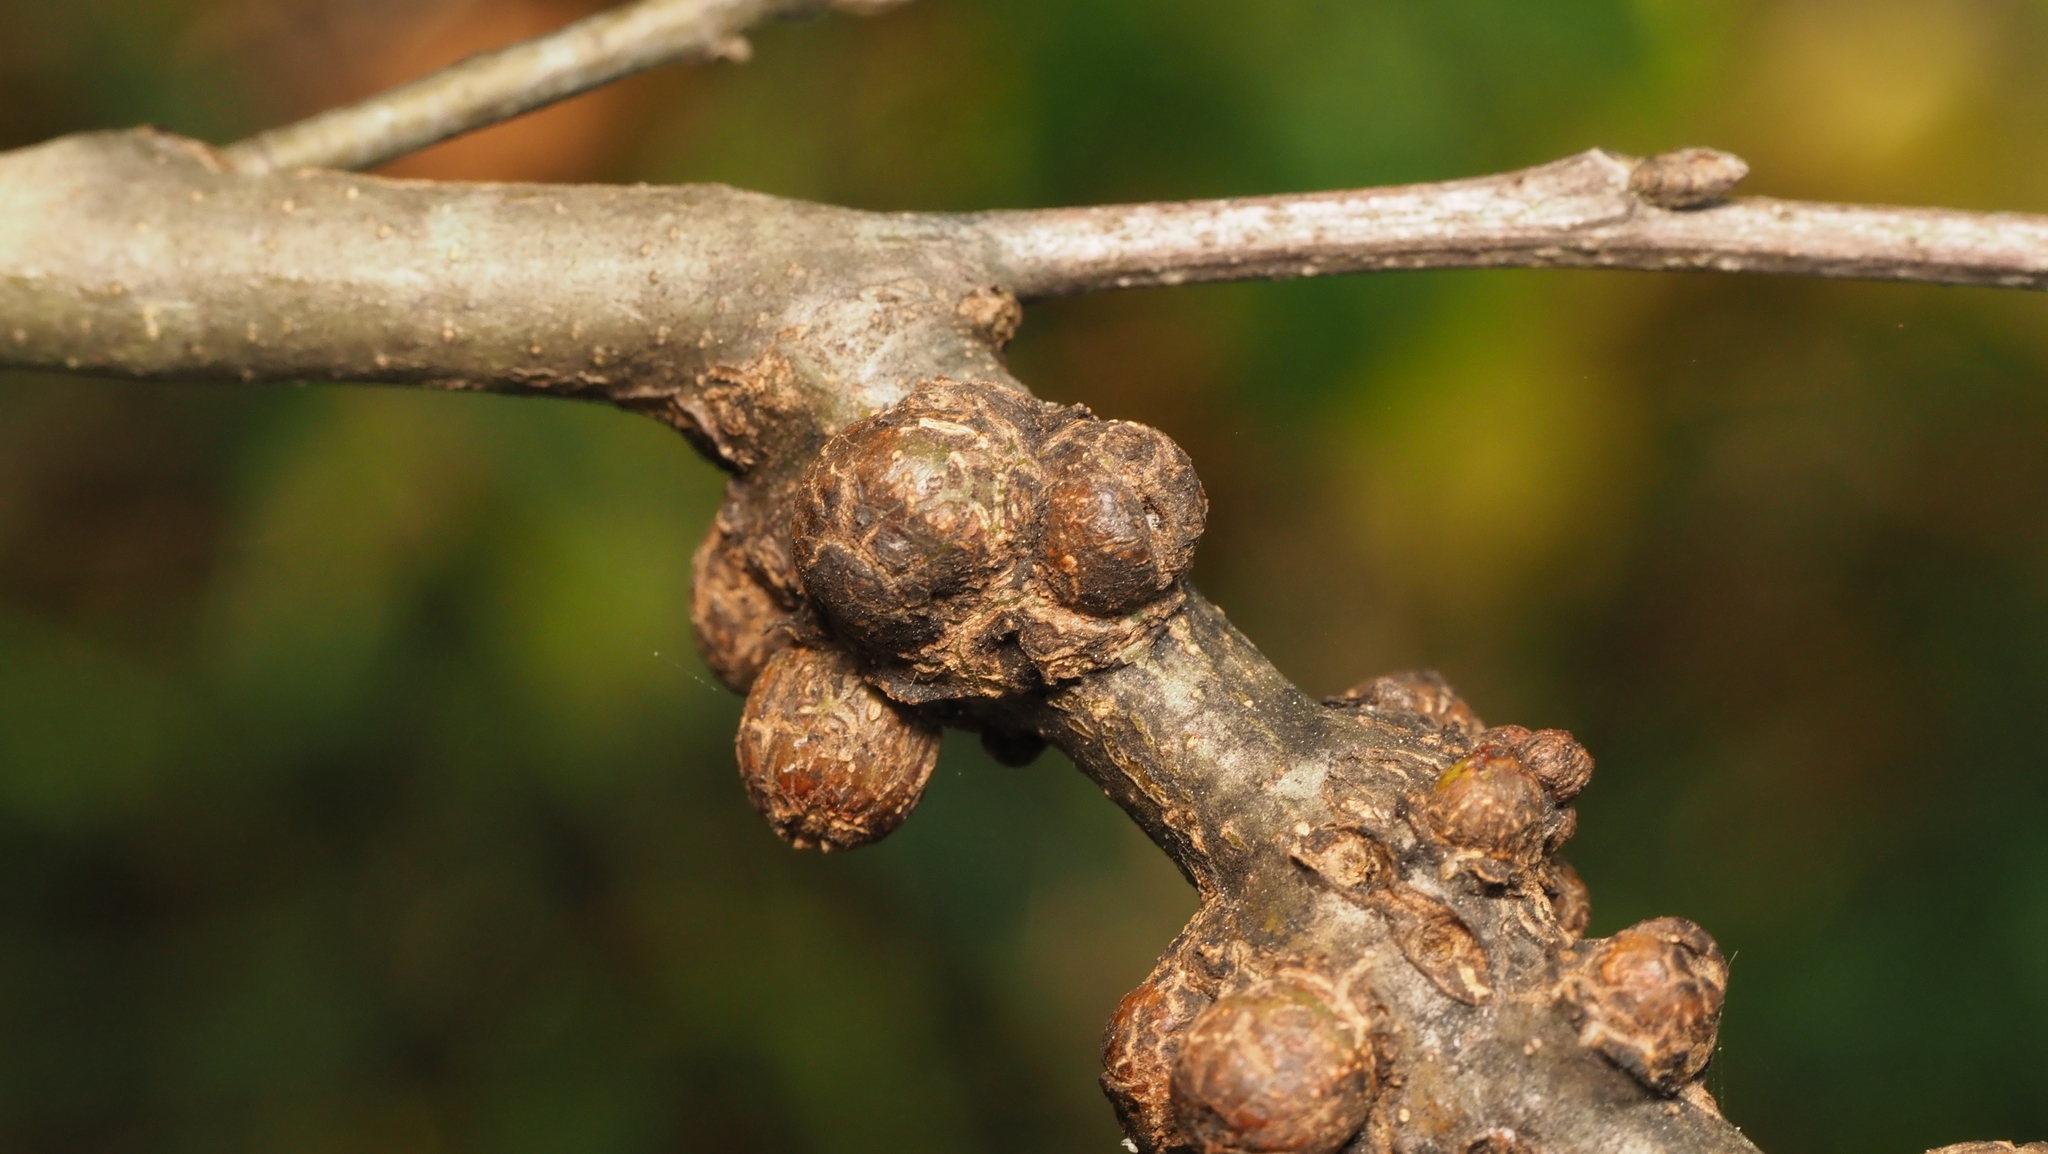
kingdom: Animalia
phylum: Arthropoda
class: Insecta
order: Hymenoptera
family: Cynipidae
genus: Synergus
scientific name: Synergus lignicola
